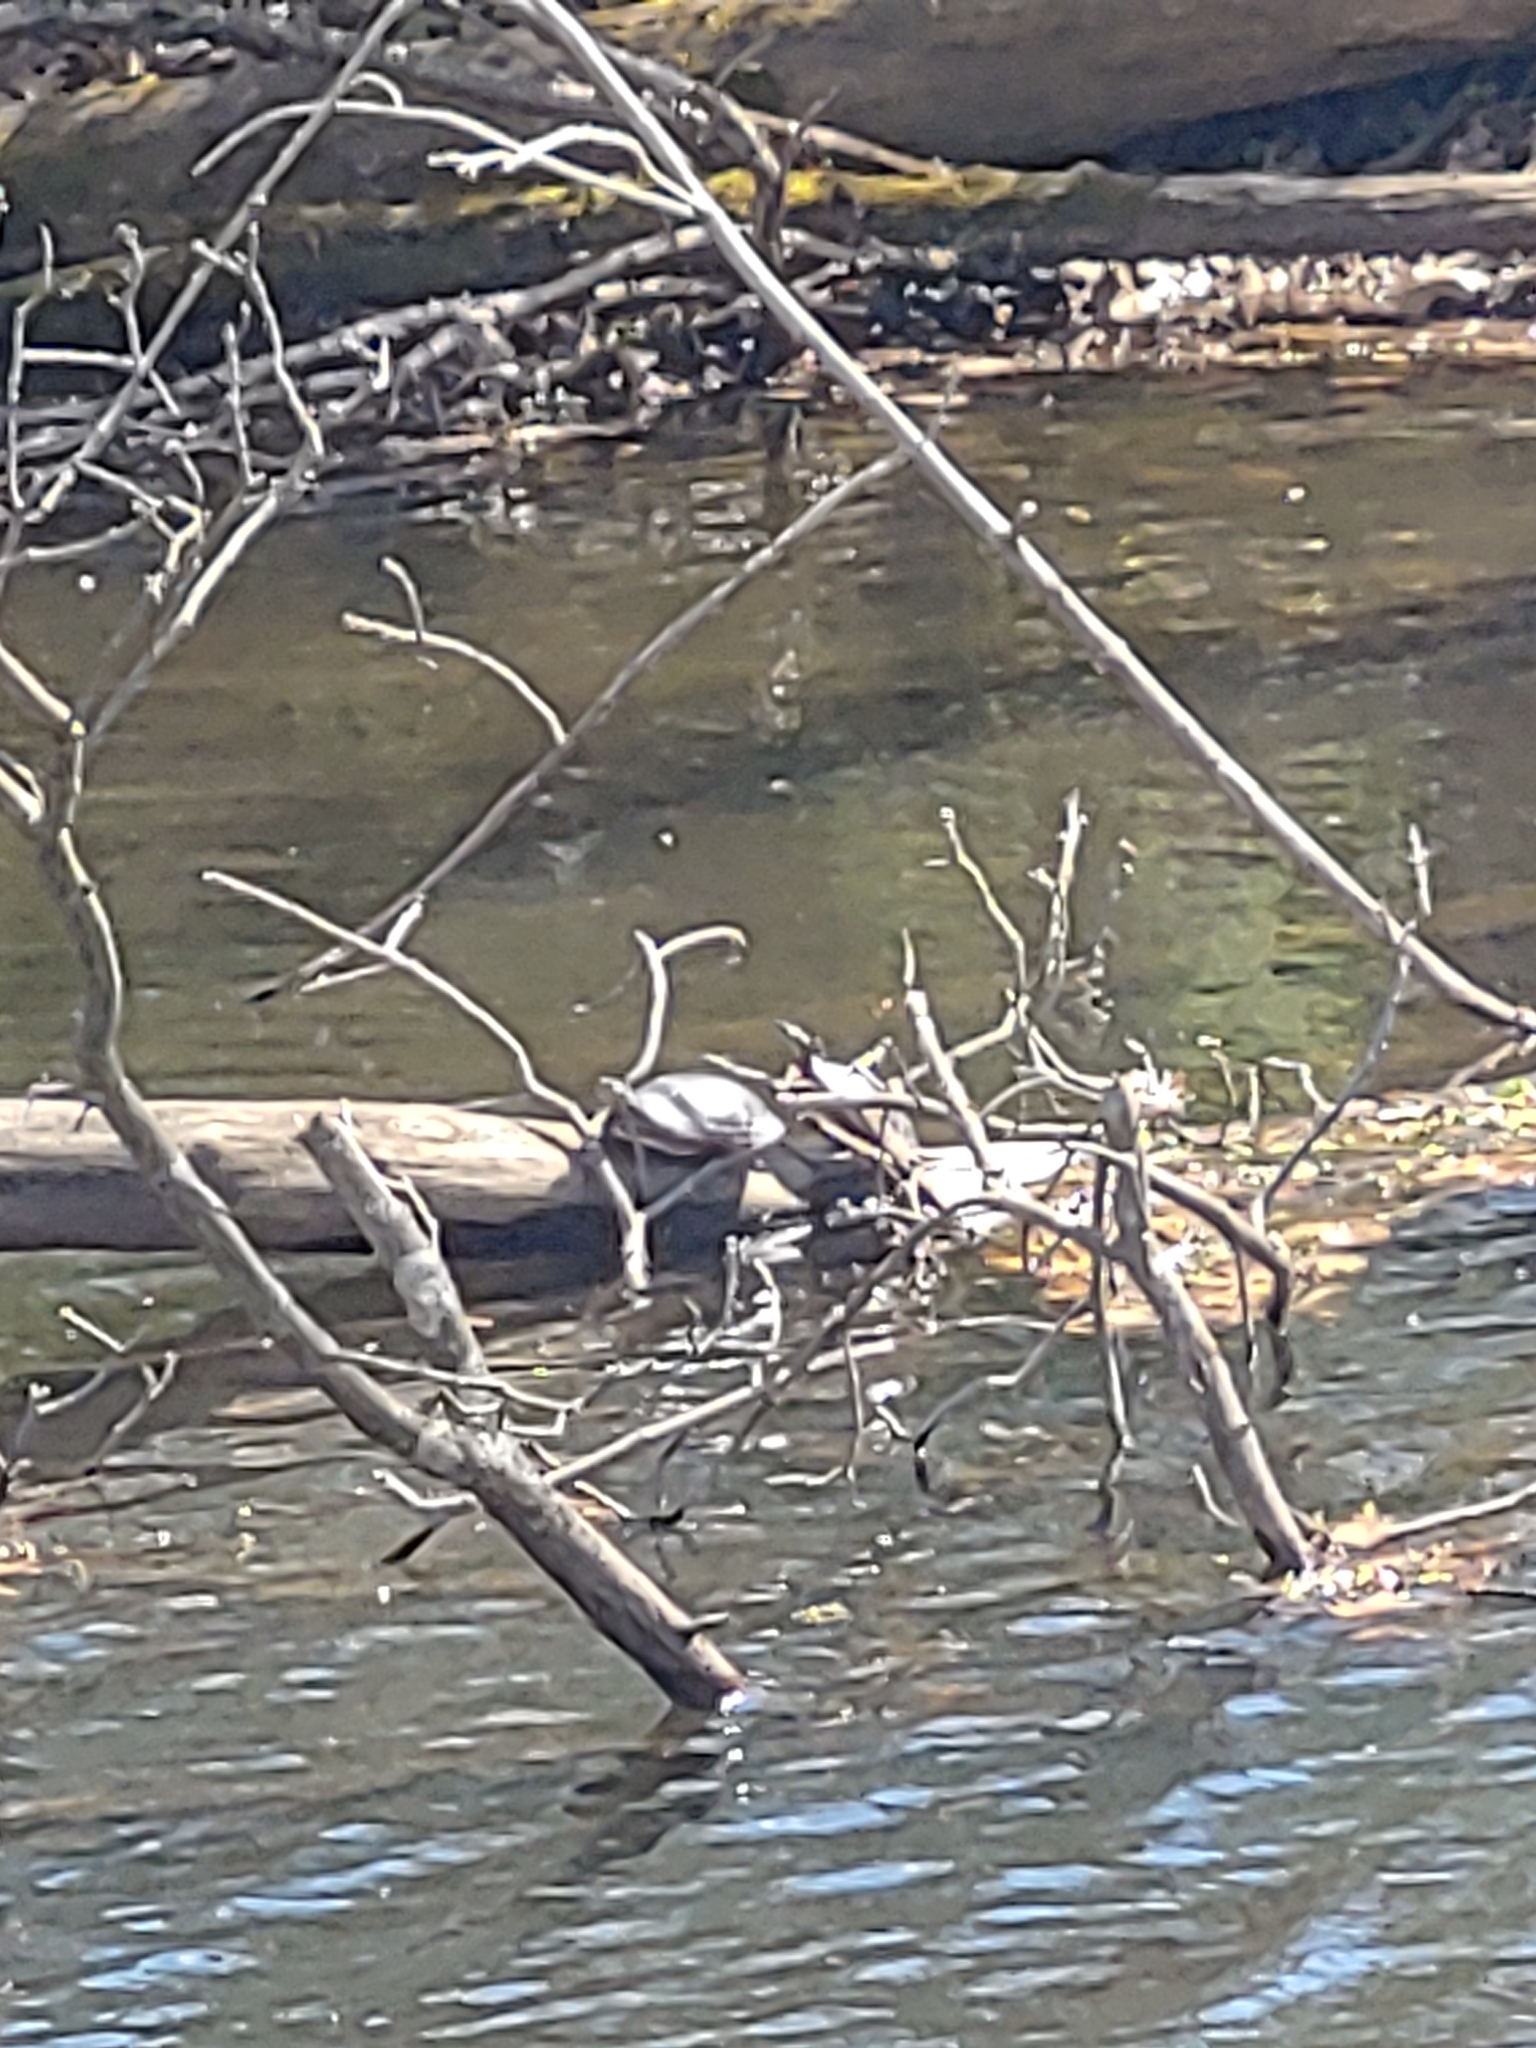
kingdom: Animalia
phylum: Chordata
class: Testudines
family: Emydidae
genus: Chrysemys
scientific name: Chrysemys picta
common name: Painted turtle
